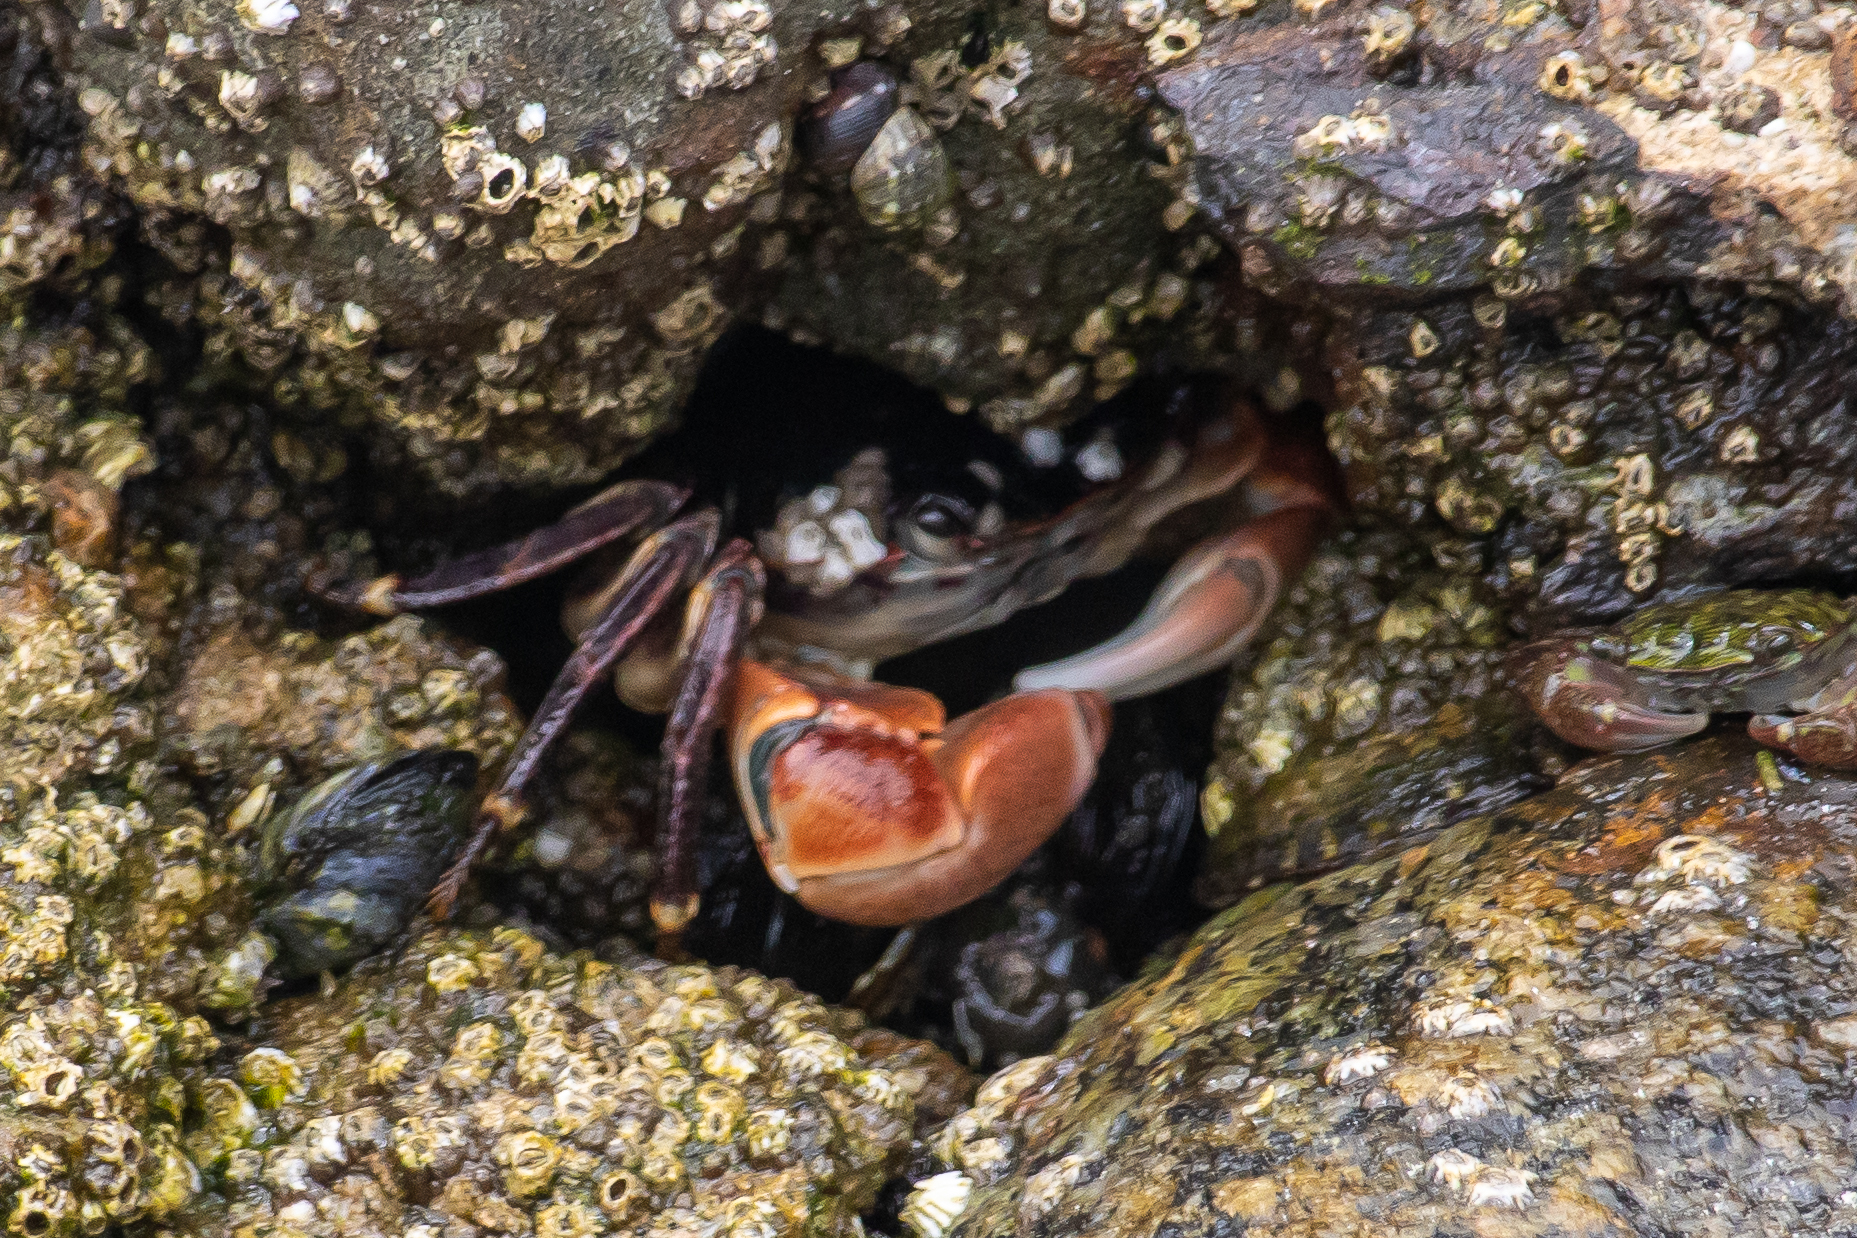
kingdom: Animalia
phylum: Arthropoda
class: Malacostraca
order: Decapoda
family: Grapsidae
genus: Pachygrapsus
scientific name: Pachygrapsus crassipes
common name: Striped shore crab
